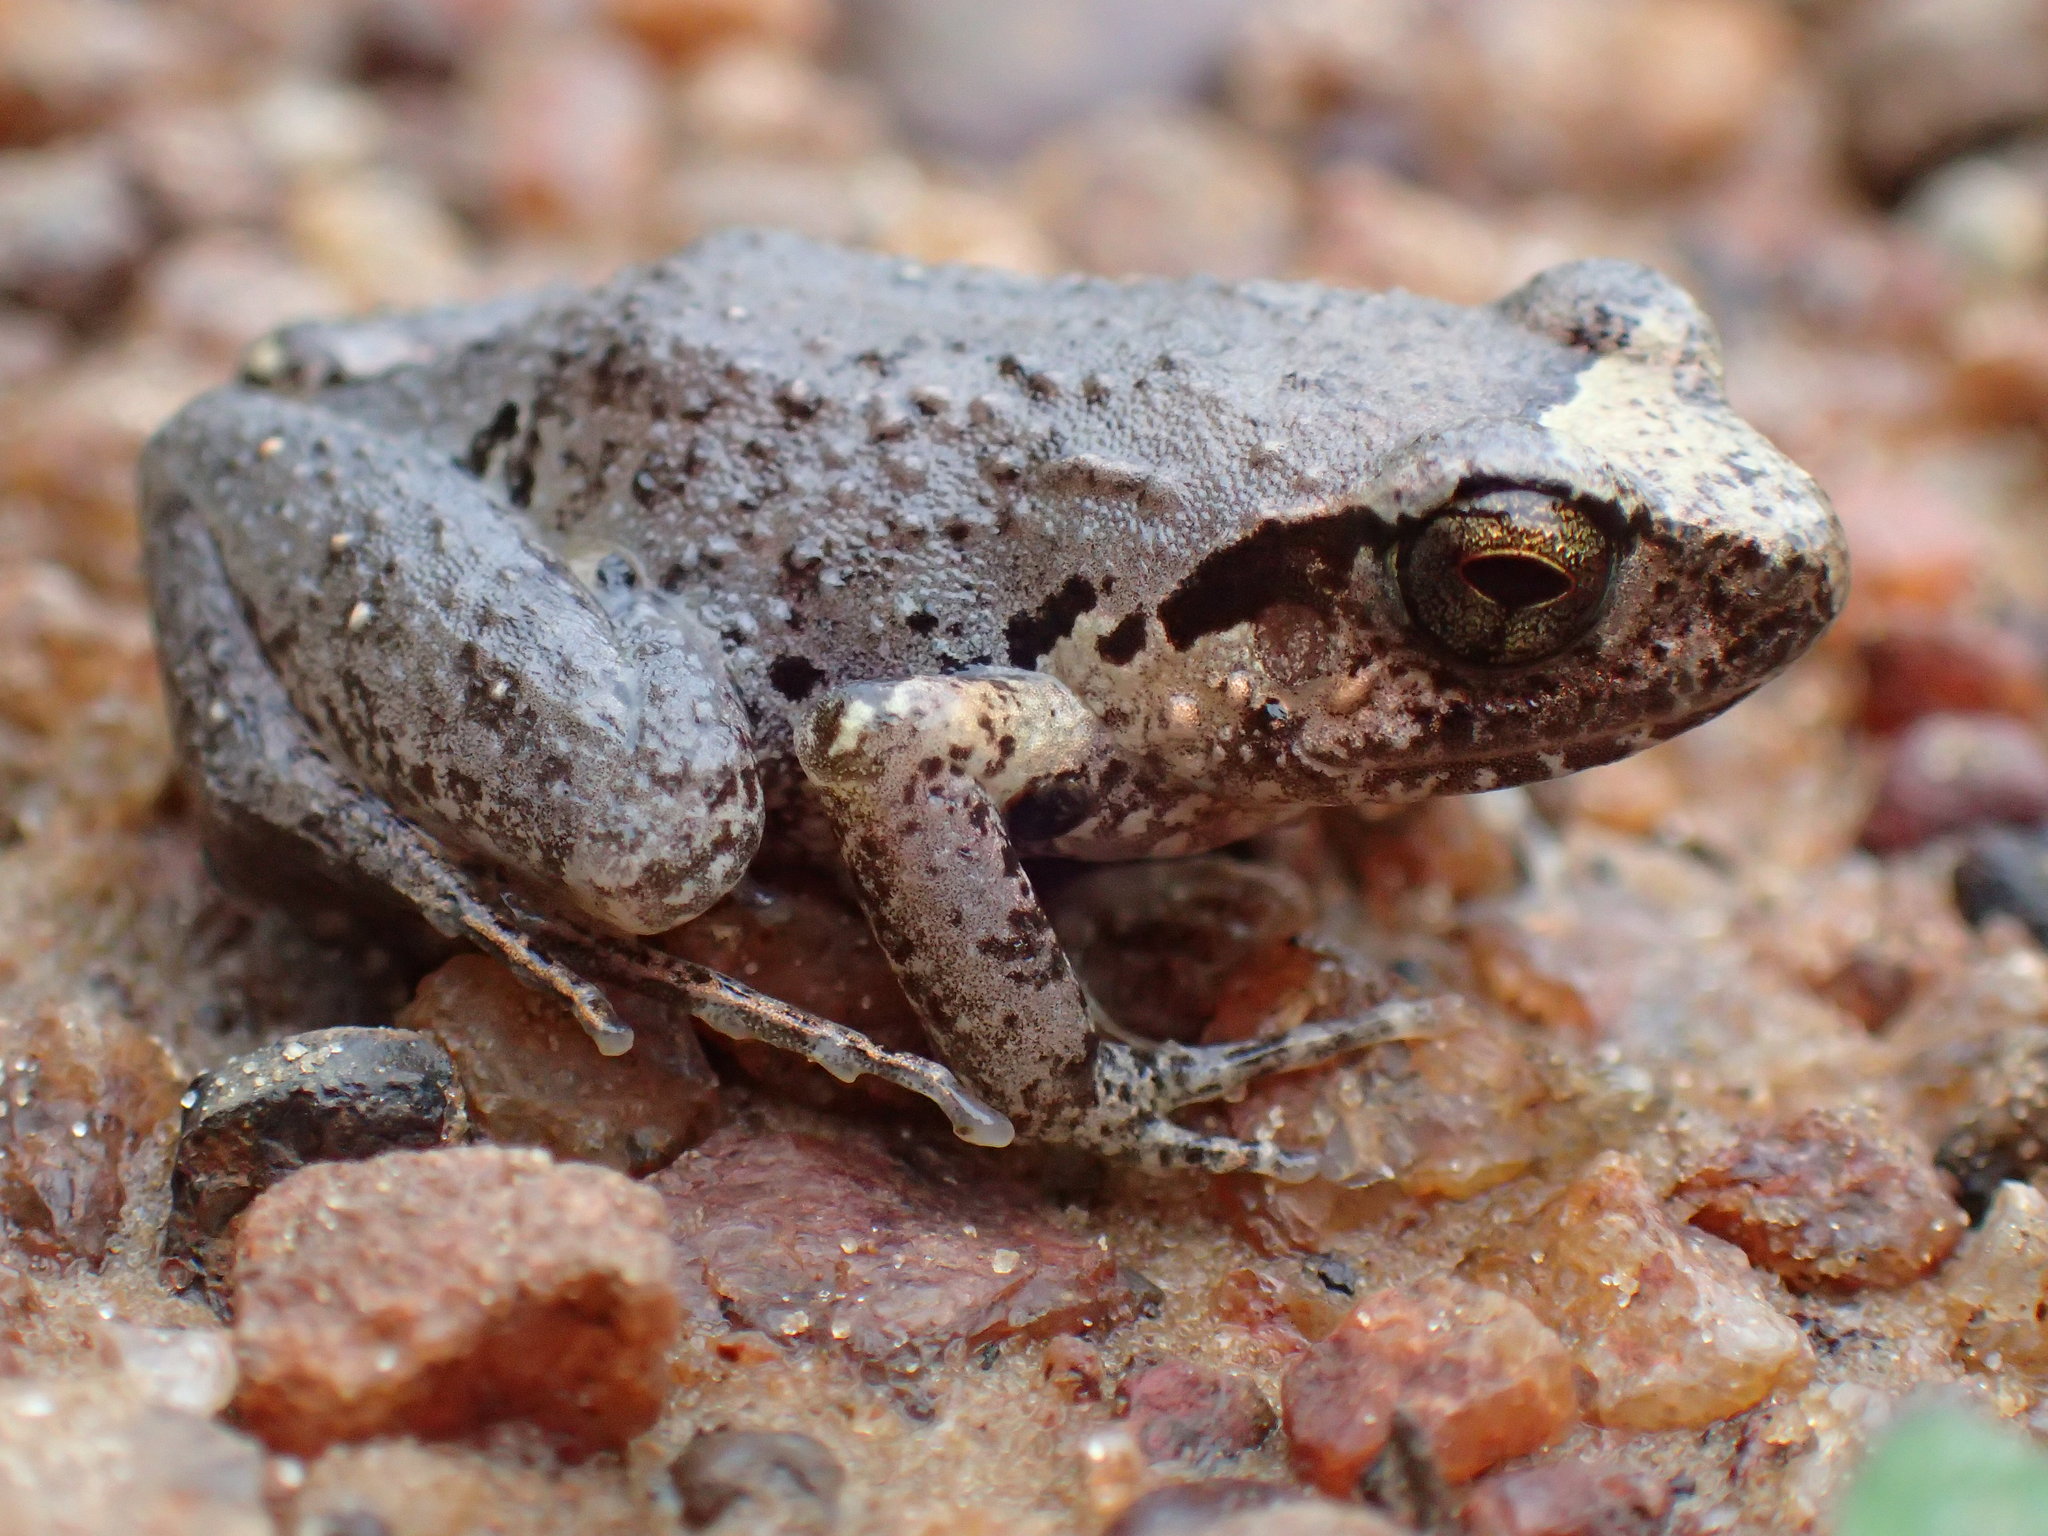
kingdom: Animalia
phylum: Chordata
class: Amphibia
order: Anura
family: Arthroleptidae
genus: Arthroleptis
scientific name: Arthroleptis poecilonotus
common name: West african screeching frog
